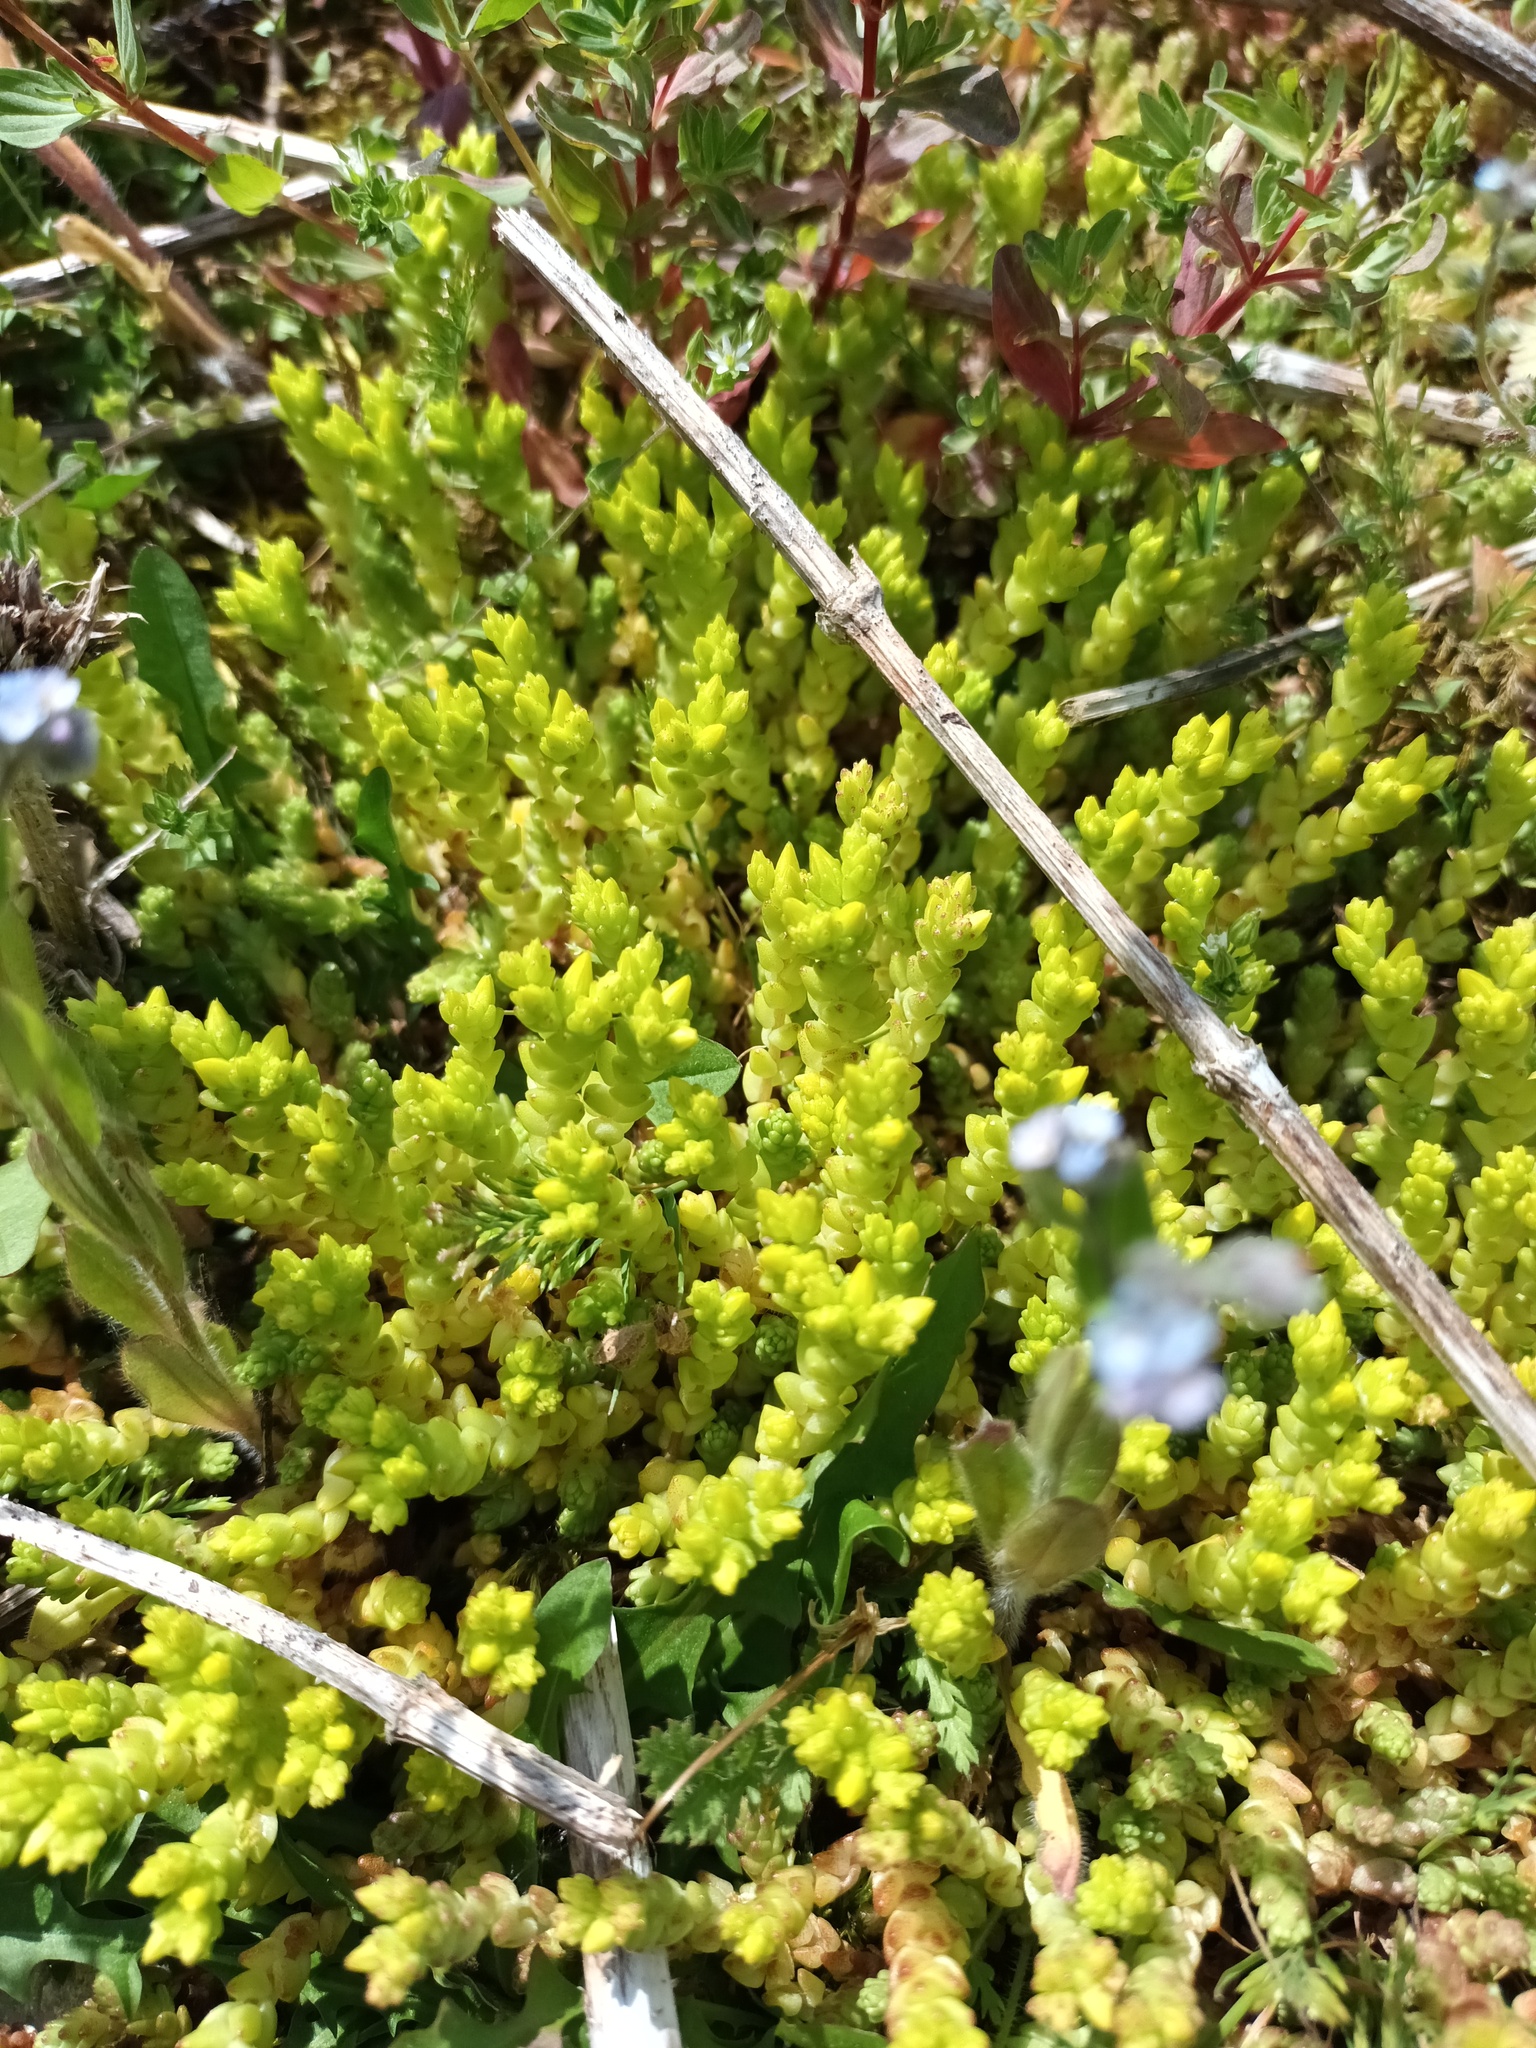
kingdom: Plantae
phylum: Tracheophyta
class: Magnoliopsida
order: Saxifragales
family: Crassulaceae
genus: Sedum
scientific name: Sedum acre
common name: Biting stonecrop
